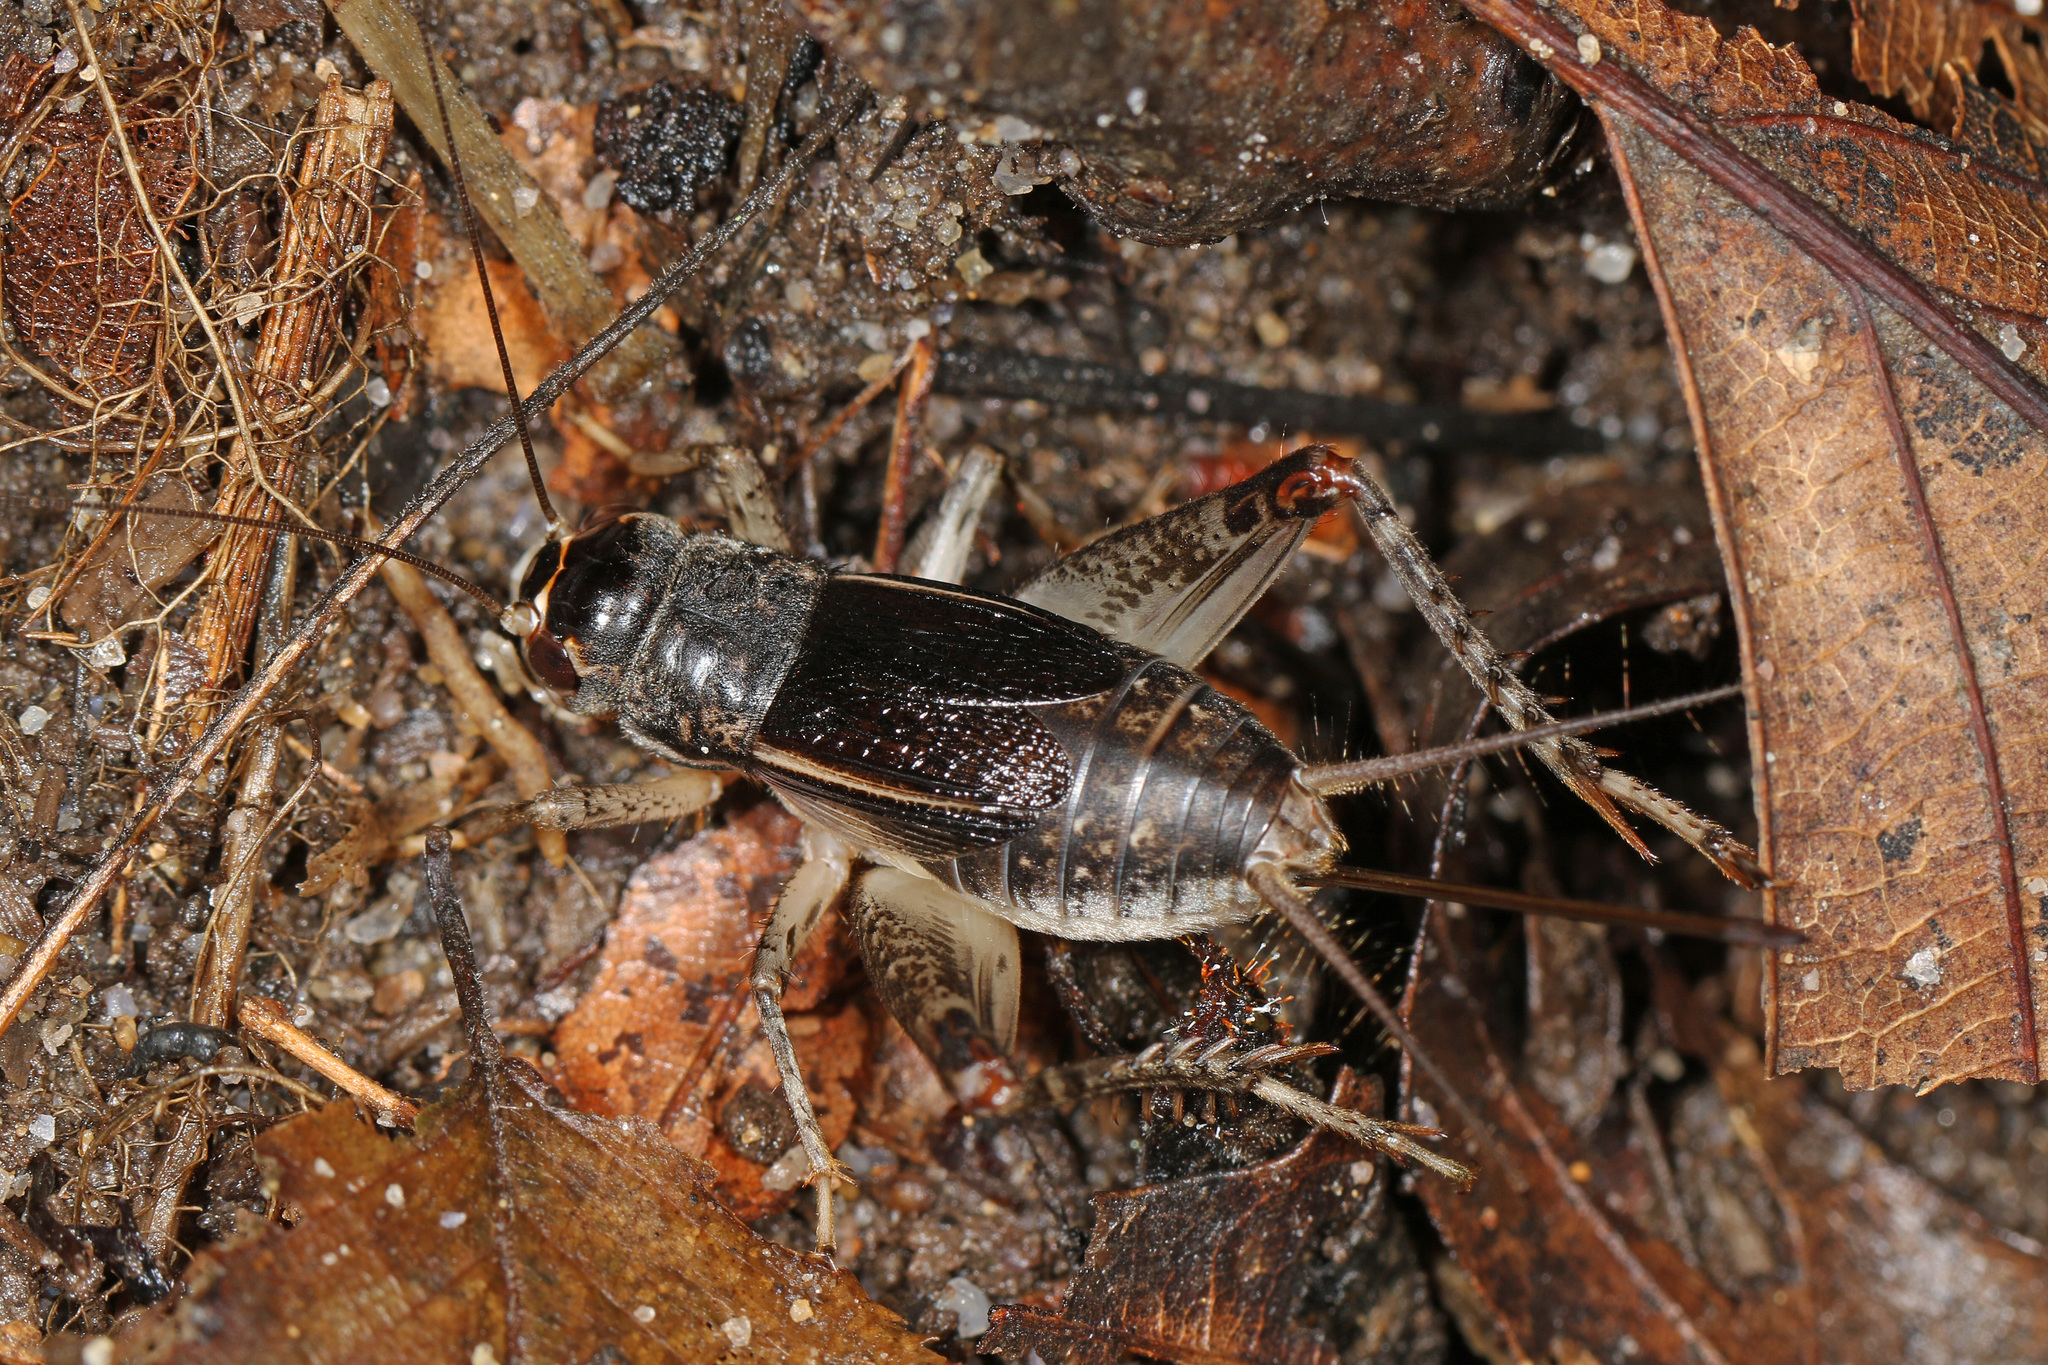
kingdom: Animalia
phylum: Arthropoda
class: Insecta
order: Orthoptera
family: Gryllidae
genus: Velarifictorus
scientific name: Velarifictorus micado
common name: Japanese burrowing cricket
